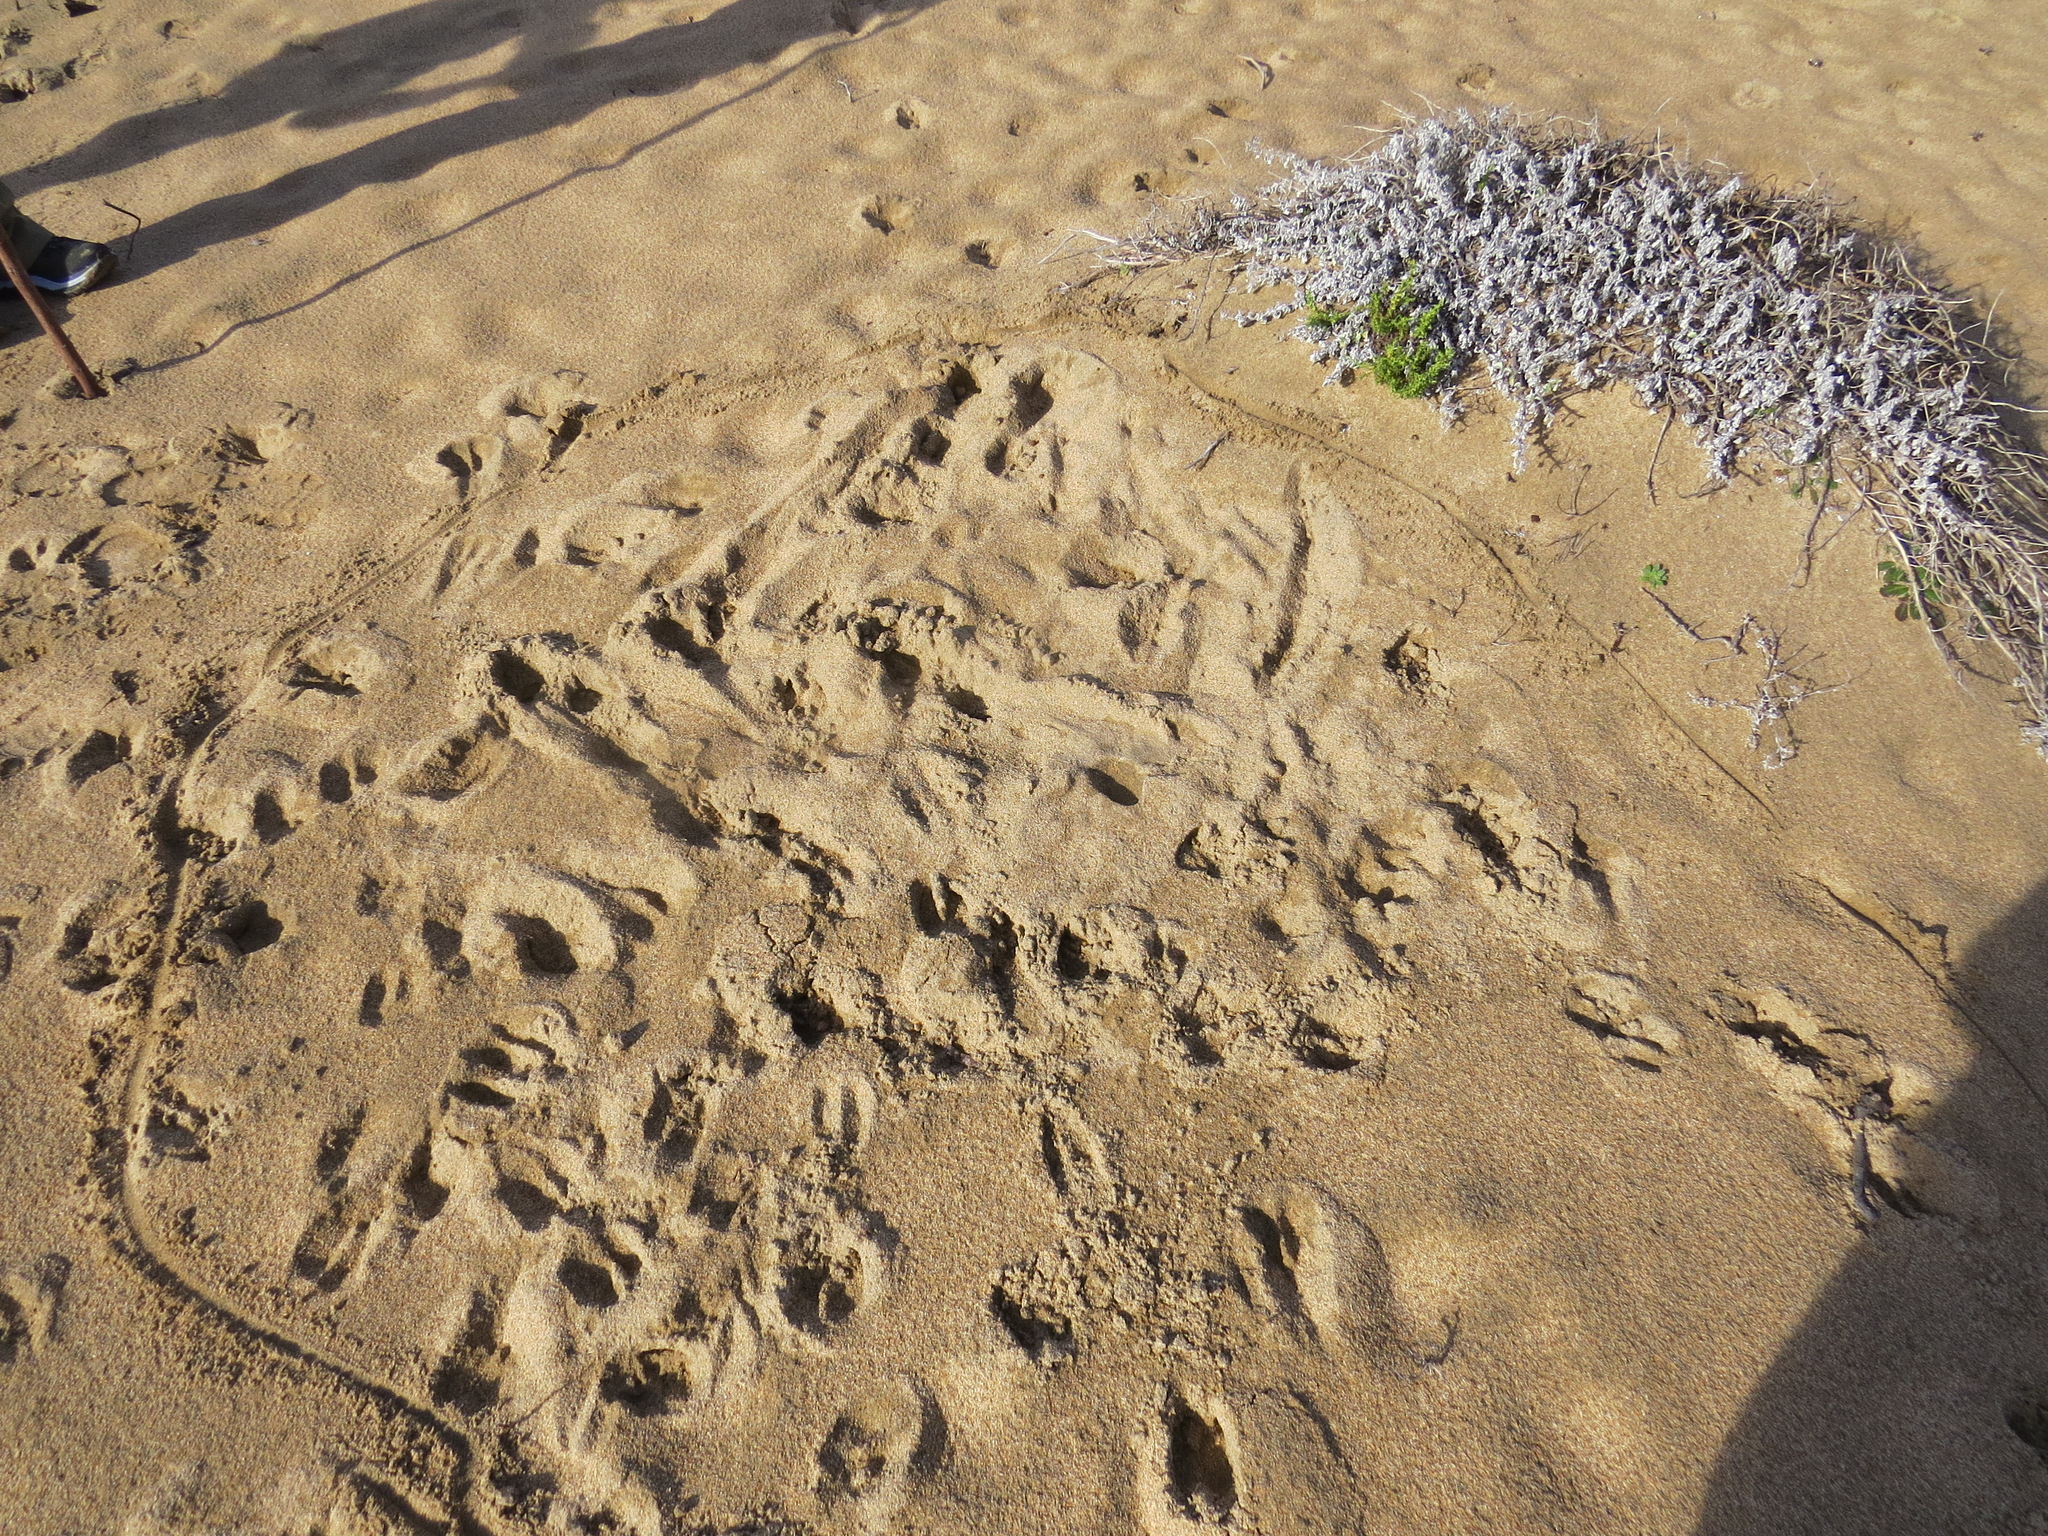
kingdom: Animalia
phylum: Chordata
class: Mammalia
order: Artiodactyla
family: Cervidae
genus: Odocoileus
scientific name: Odocoileus hemionus
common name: Mule deer
